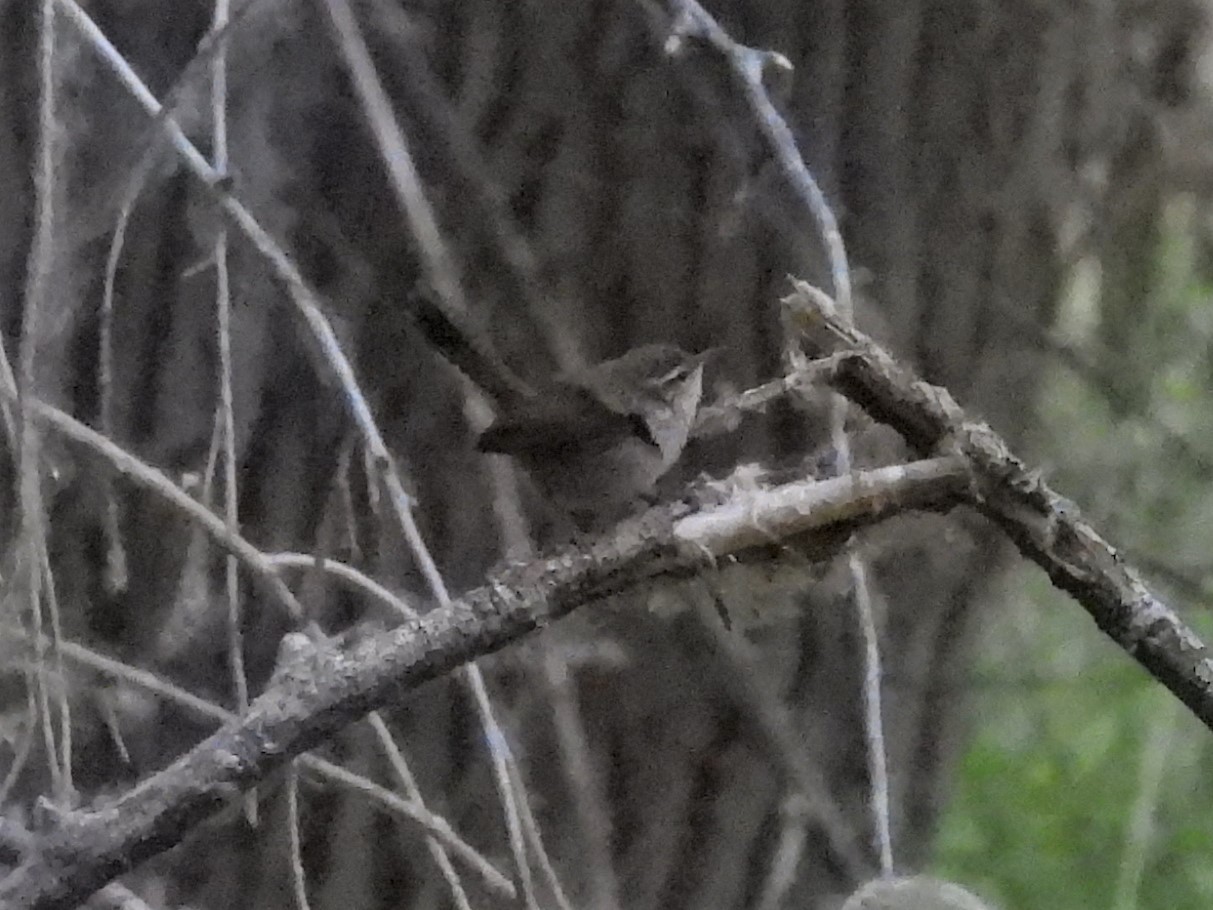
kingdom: Animalia
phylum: Chordata
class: Aves
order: Passeriformes
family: Troglodytidae
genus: Thryomanes
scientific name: Thryomanes bewickii
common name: Bewick's wren
